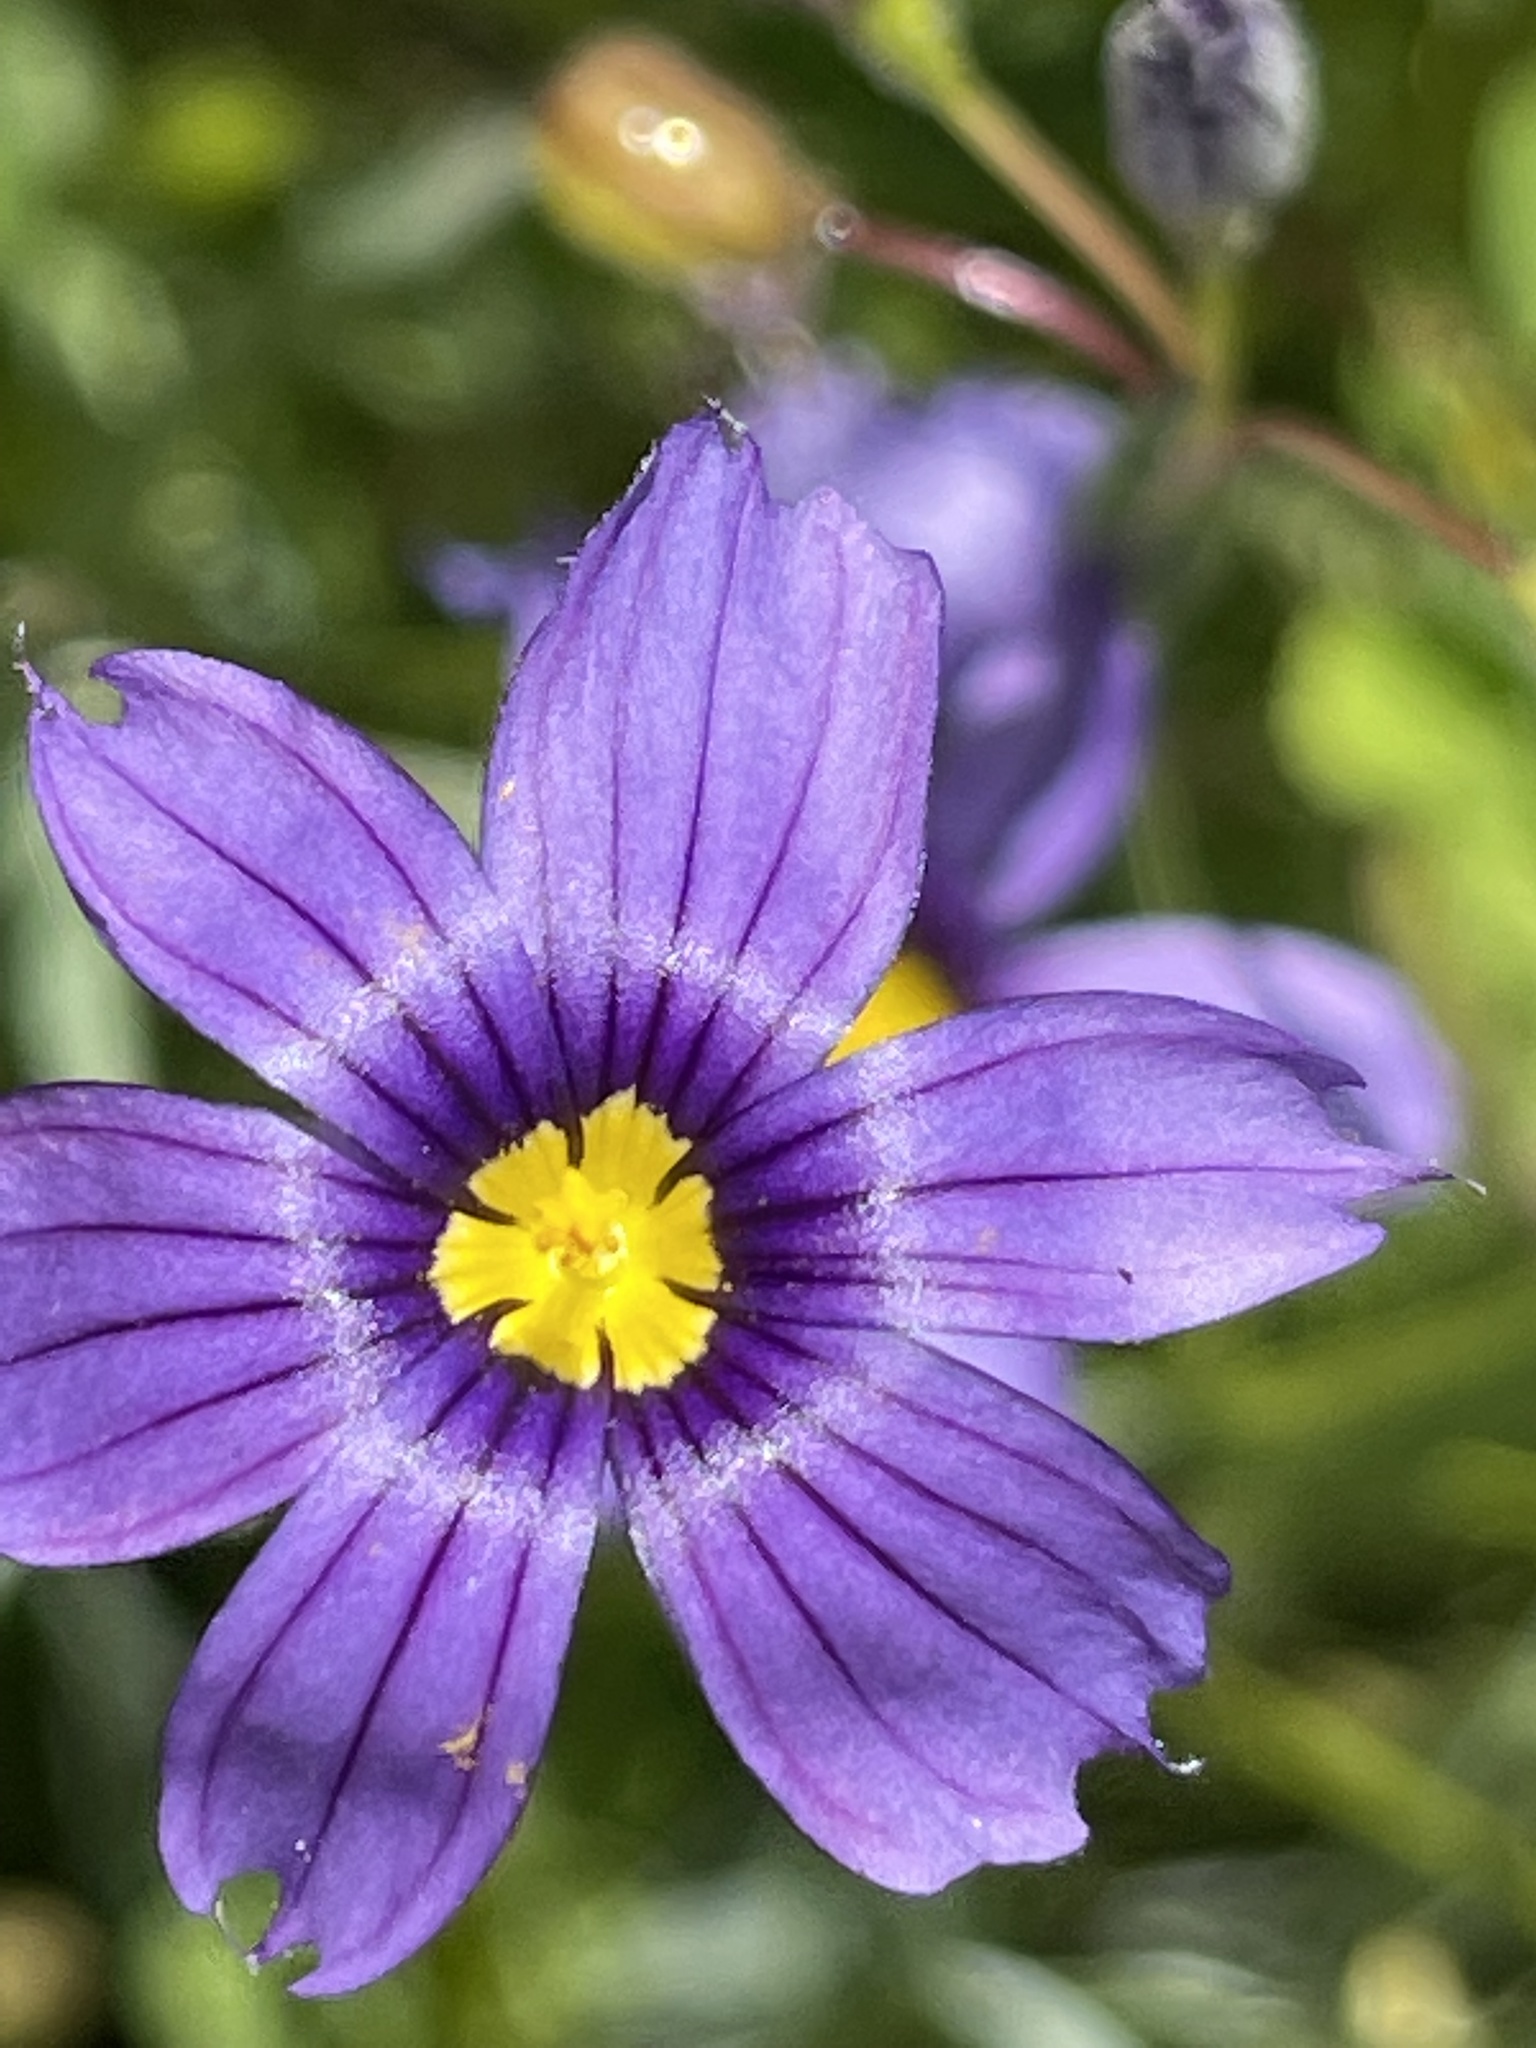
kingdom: Plantae
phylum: Tracheophyta
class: Liliopsida
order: Asparagales
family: Iridaceae
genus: Sisyrinchium
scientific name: Sisyrinchium bellum
